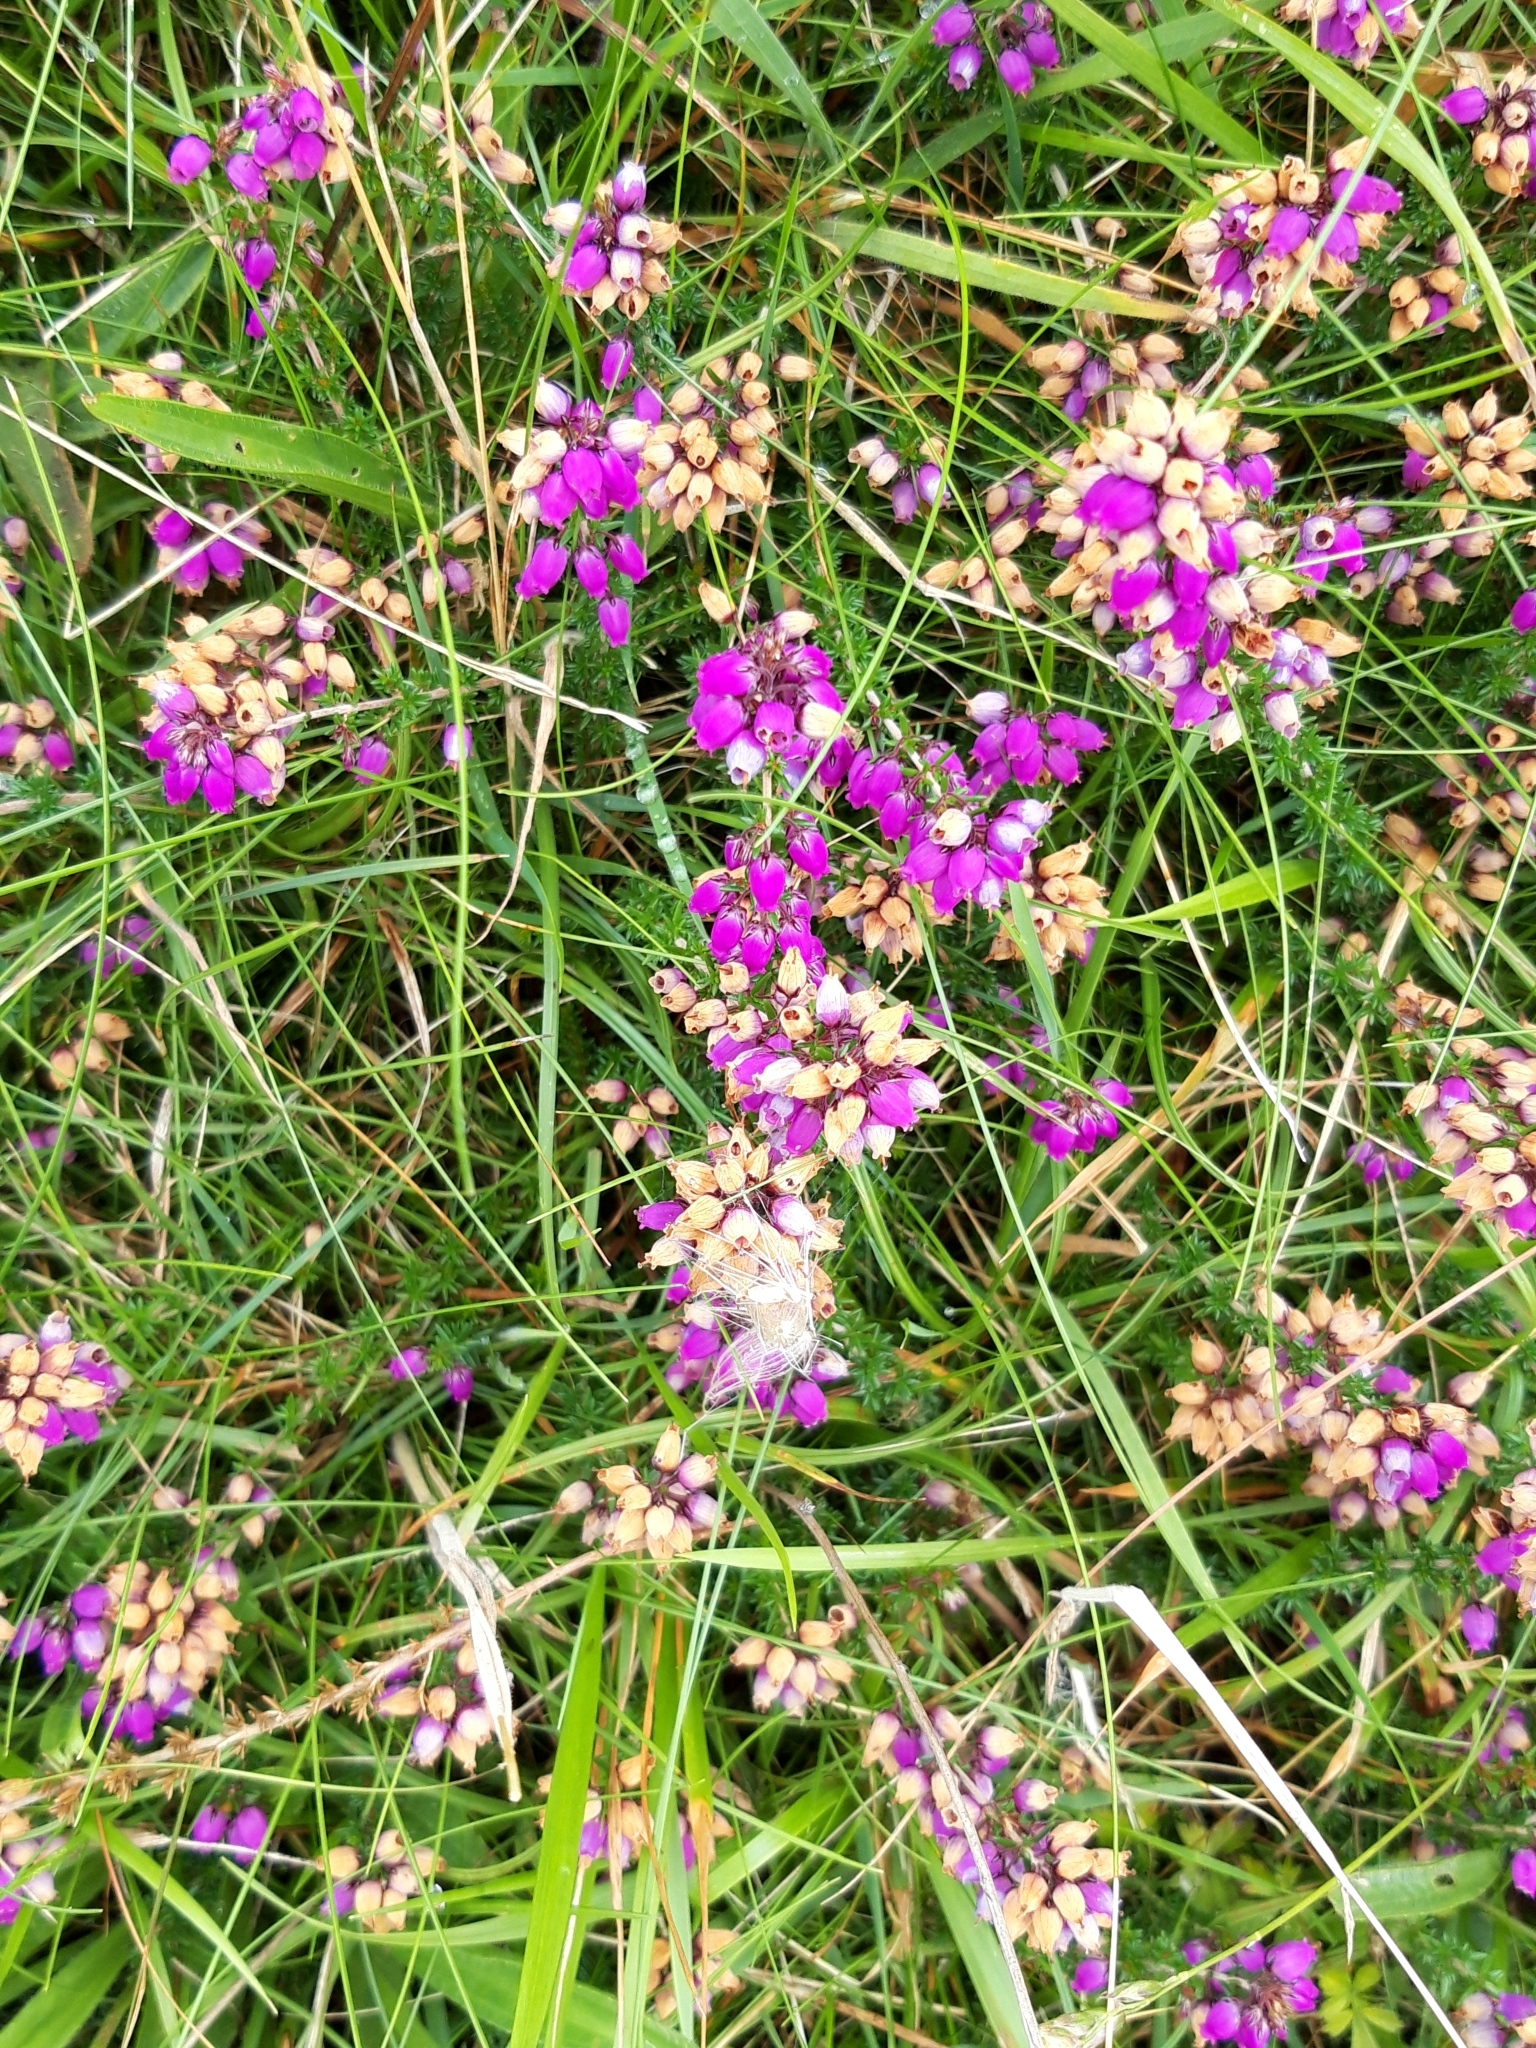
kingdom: Plantae
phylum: Tracheophyta
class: Magnoliopsida
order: Ericales
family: Ericaceae
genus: Erica
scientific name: Erica cinerea
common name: Bell heather
